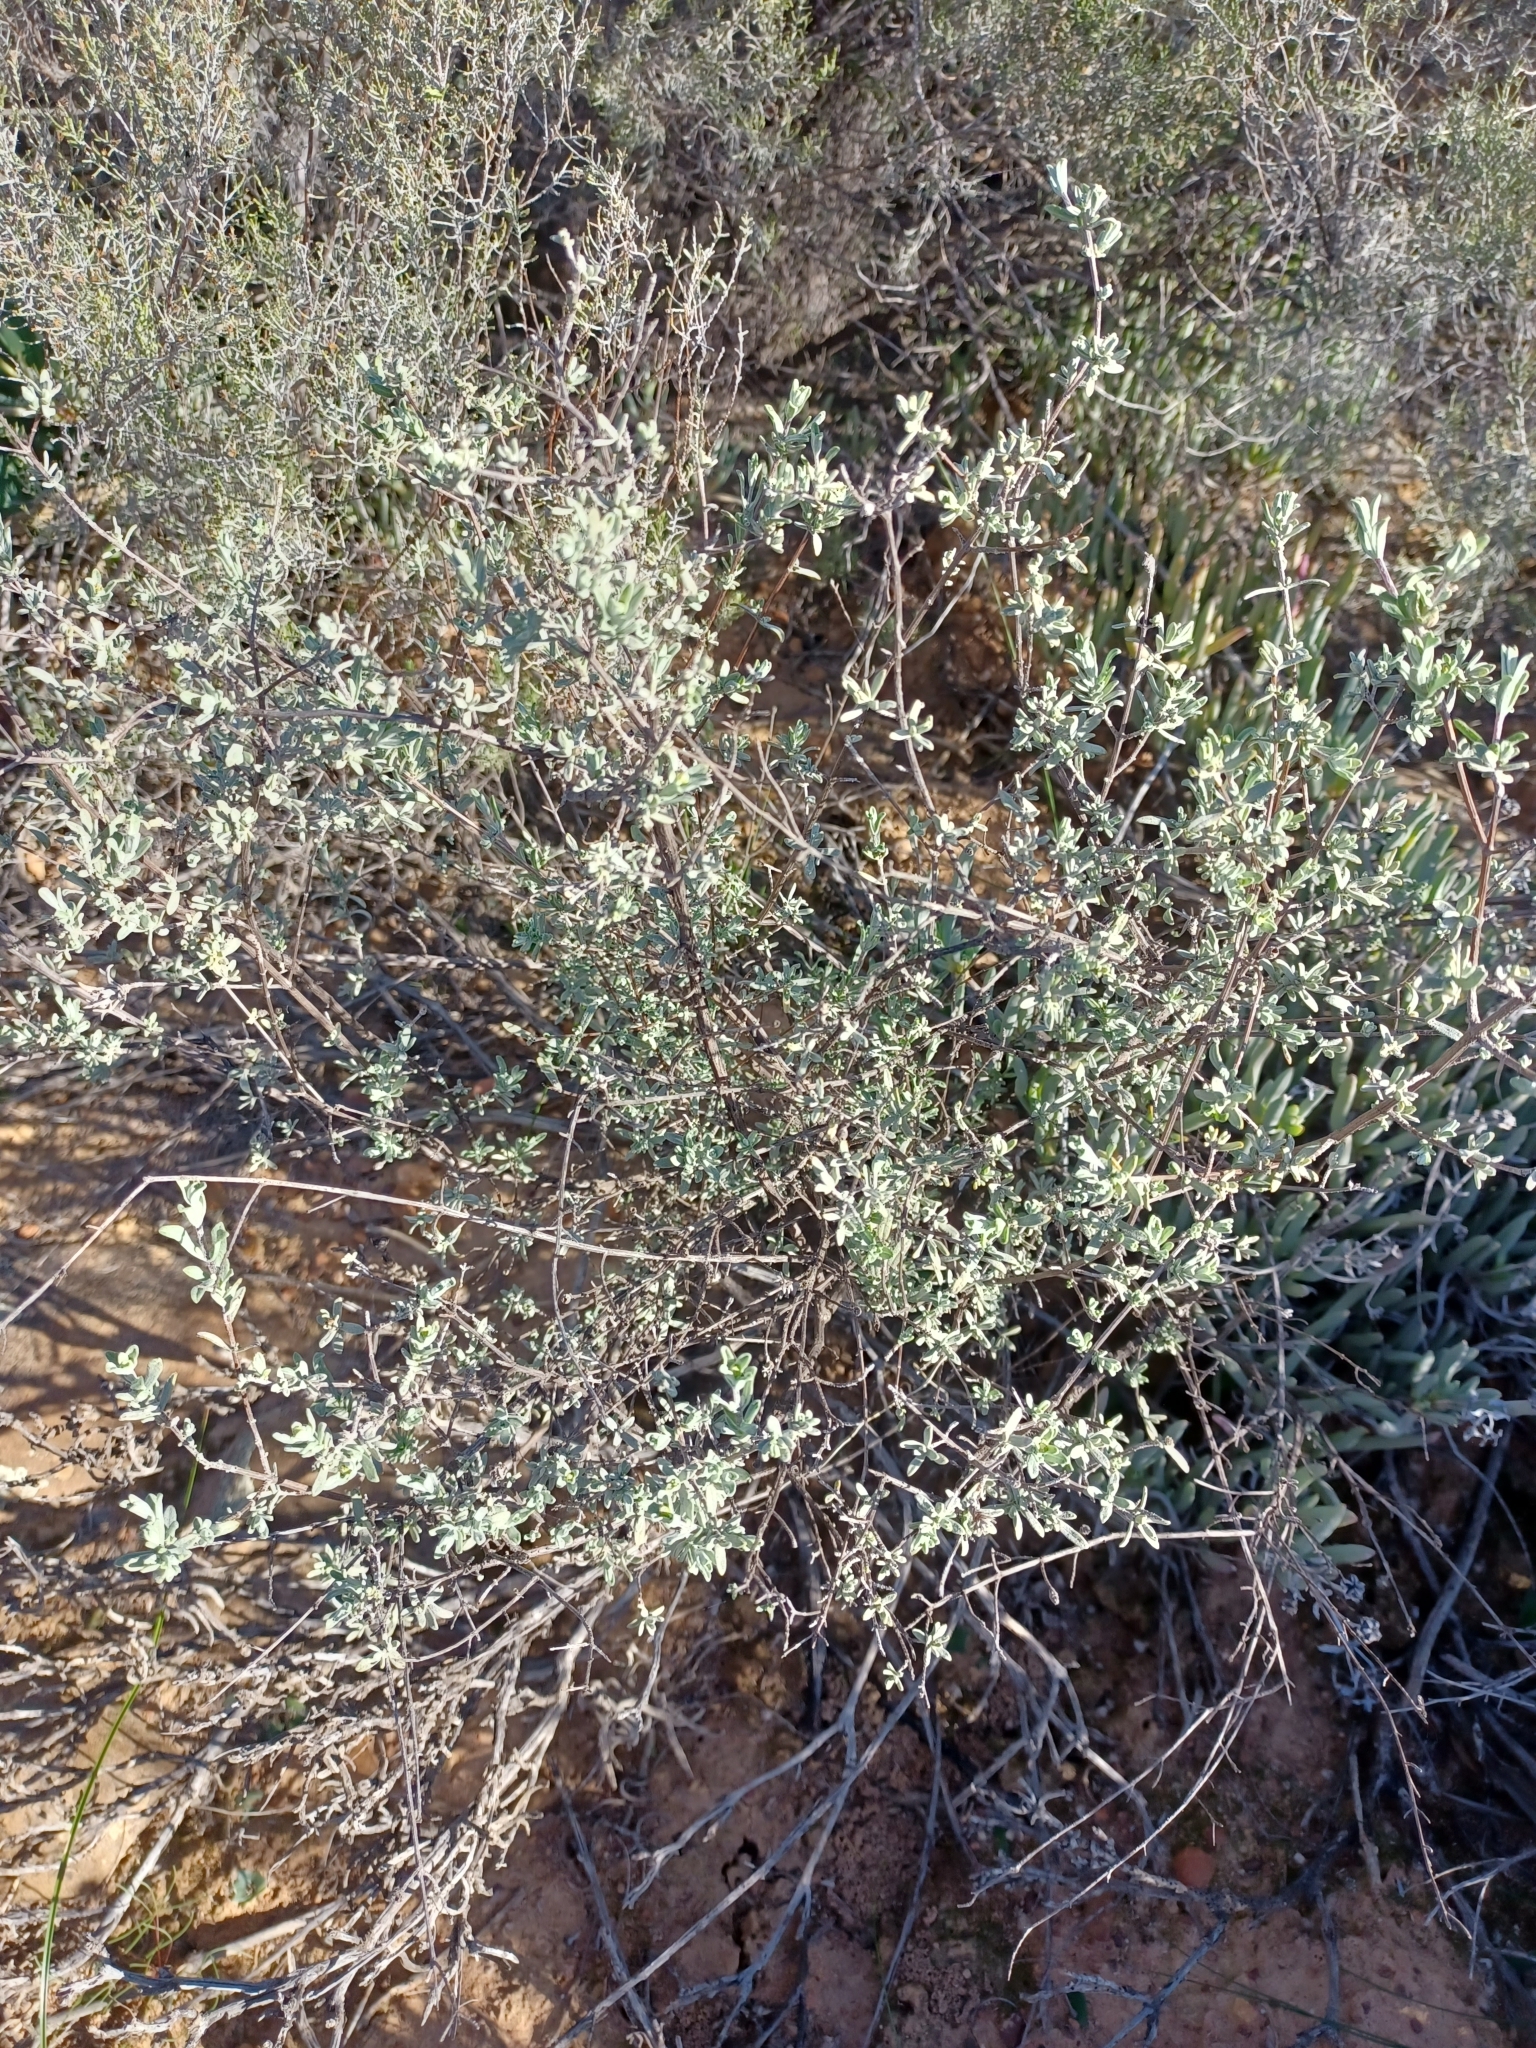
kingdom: Plantae
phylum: Tracheophyta
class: Magnoliopsida
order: Asterales
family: Asteraceae
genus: Pteronia
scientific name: Pteronia incana
